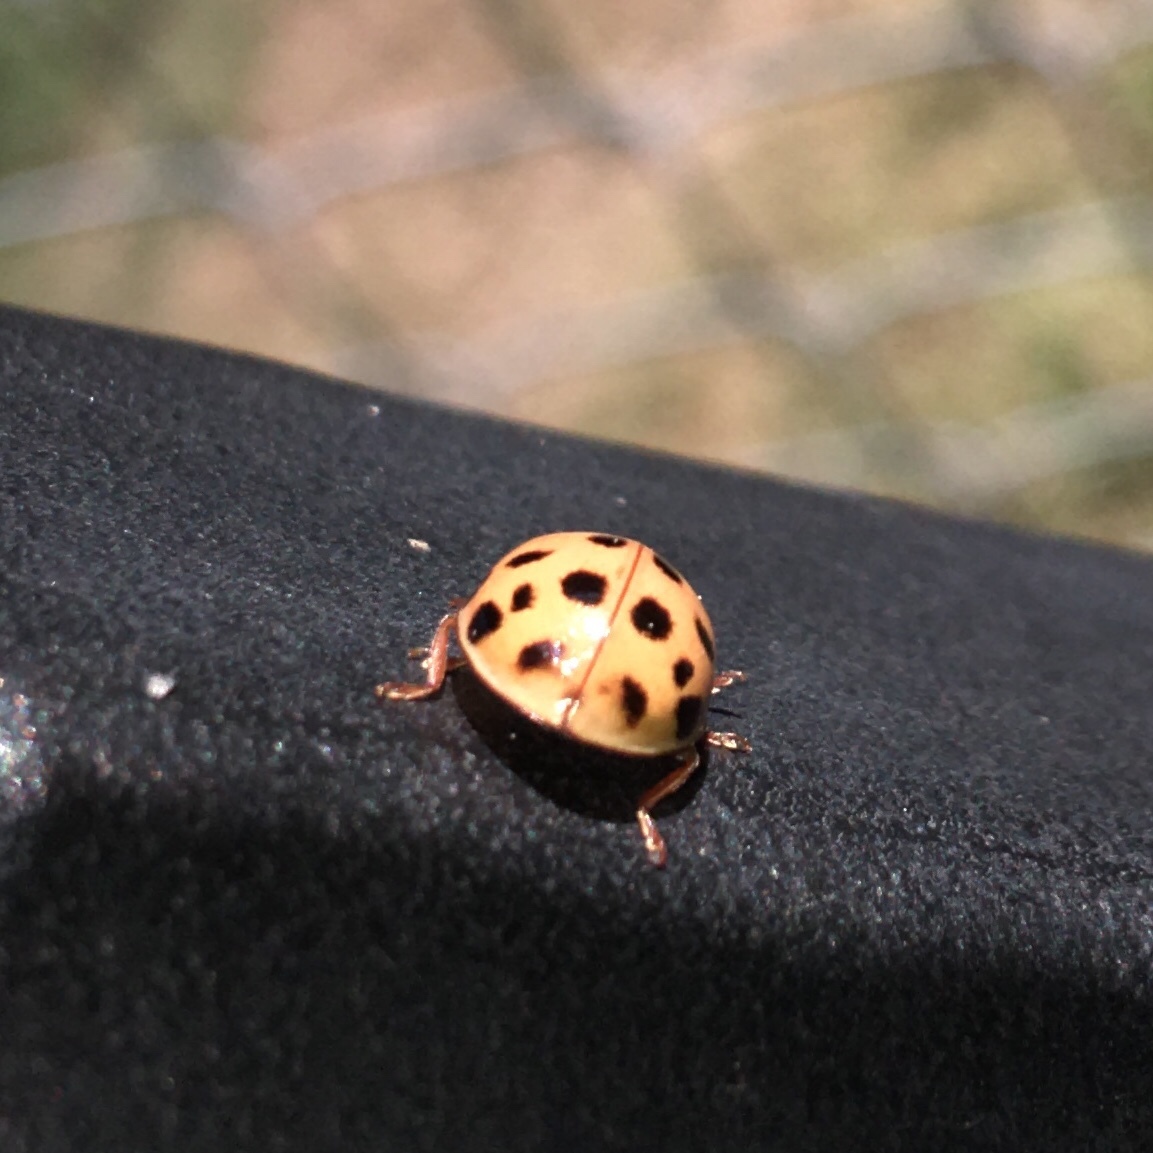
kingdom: Animalia
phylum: Arthropoda
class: Insecta
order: Coleoptera
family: Coccinellidae
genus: Harmonia
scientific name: Harmonia axyridis
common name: Harlequin ladybird
